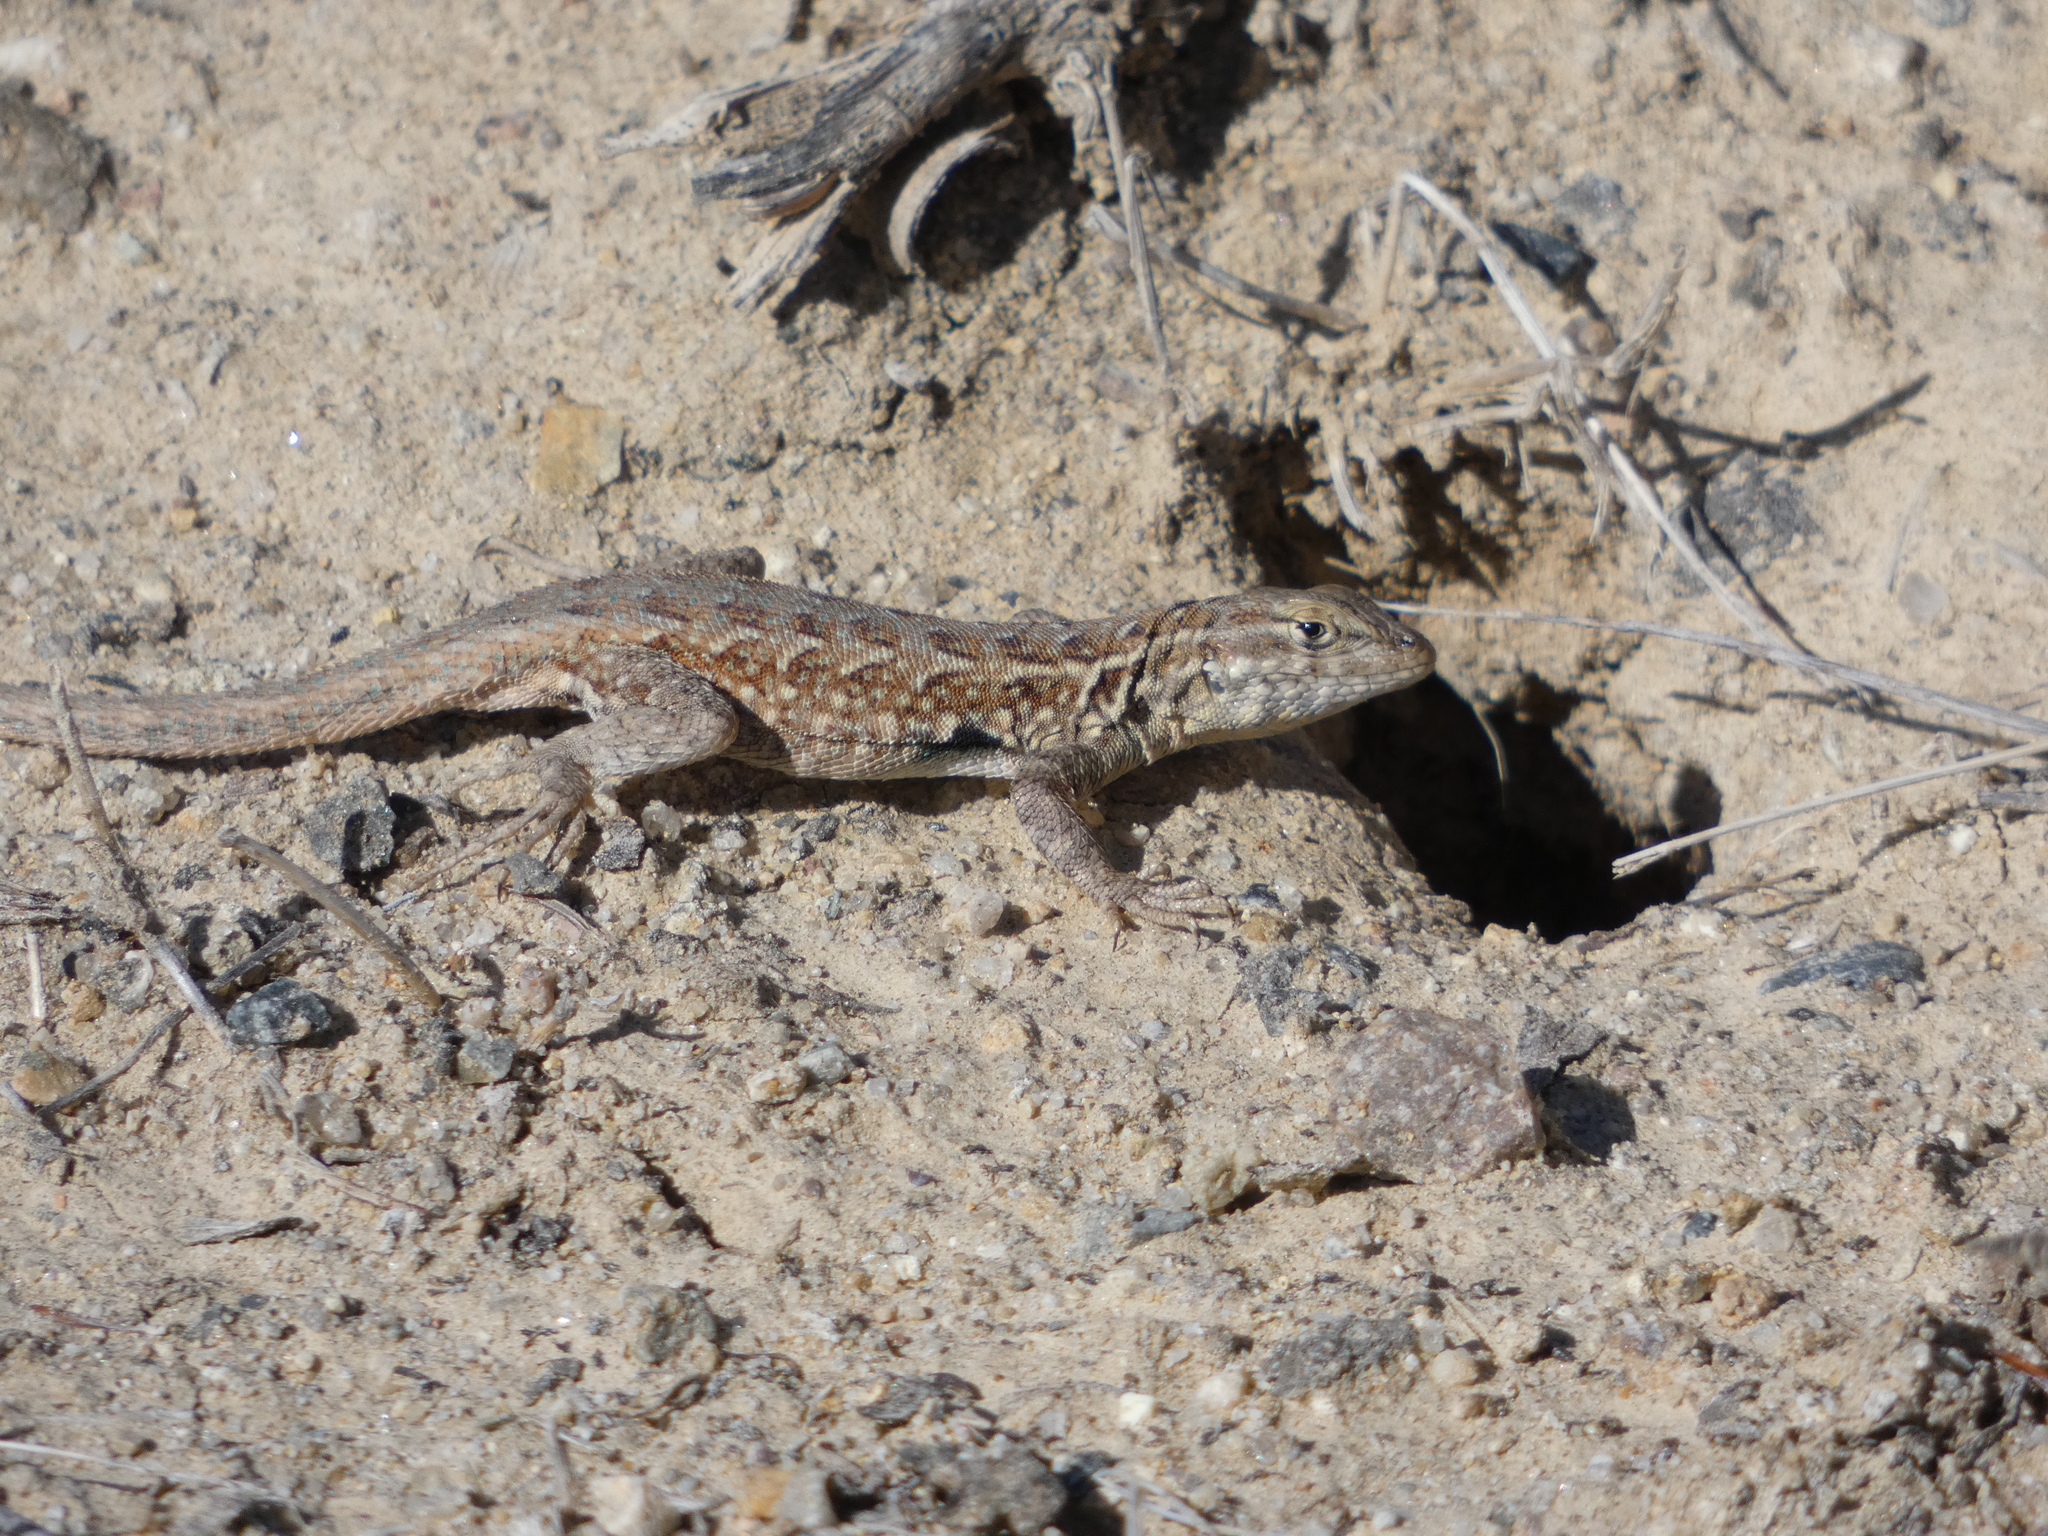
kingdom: Animalia
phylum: Chordata
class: Squamata
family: Phrynosomatidae
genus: Uta
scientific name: Uta stansburiana
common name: Side-blotched lizard
